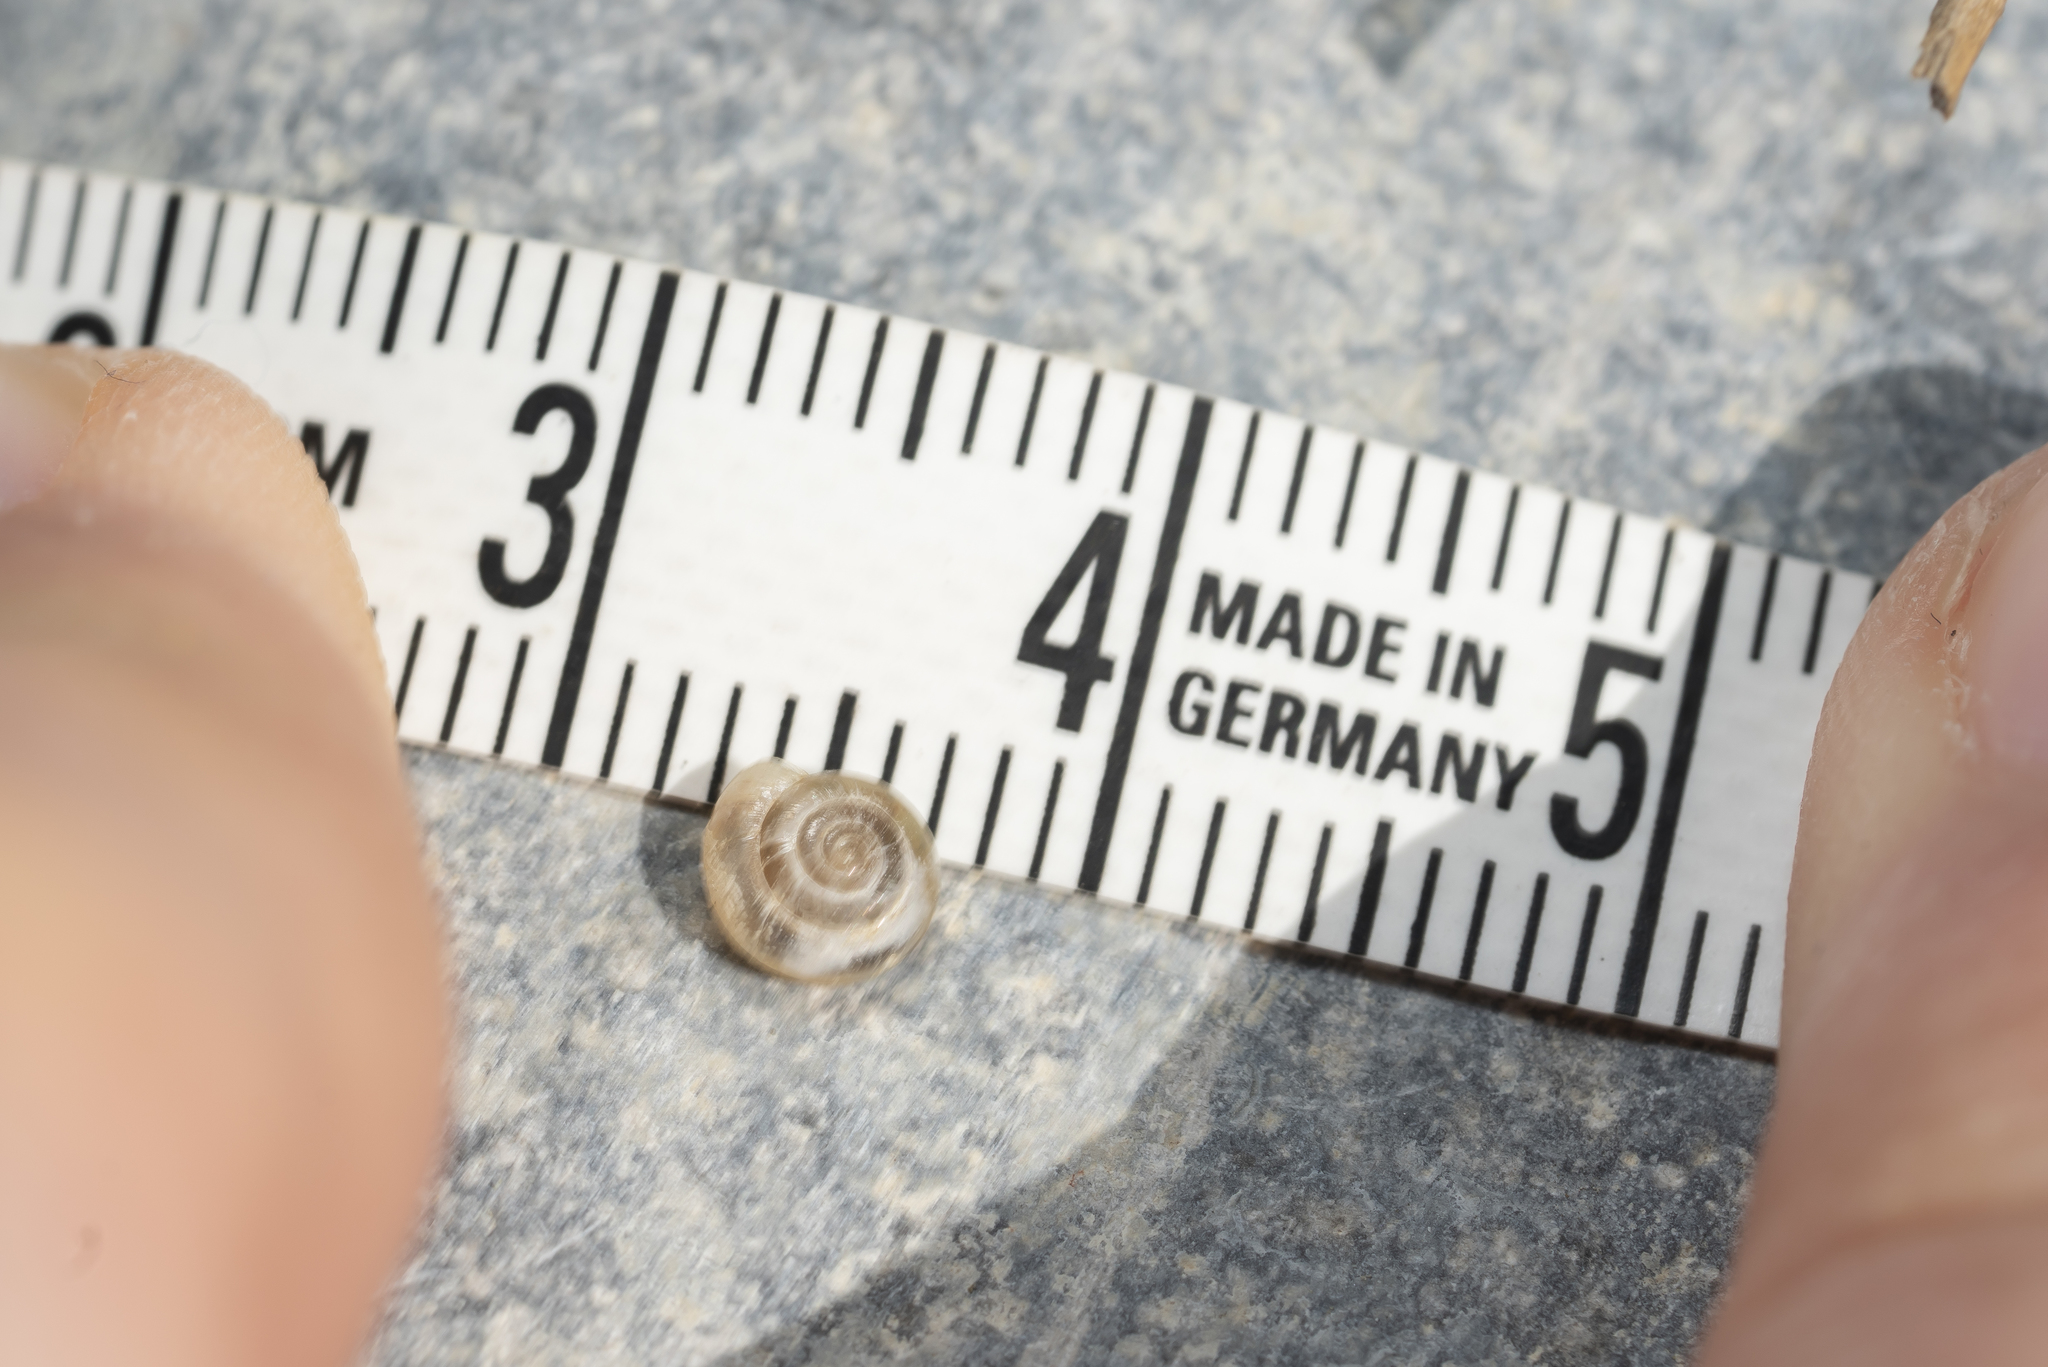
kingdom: Animalia
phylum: Mollusca
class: Gastropoda
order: Stylommatophora
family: Oxychilidae
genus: Mediterranea
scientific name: Mediterranea hydatina
